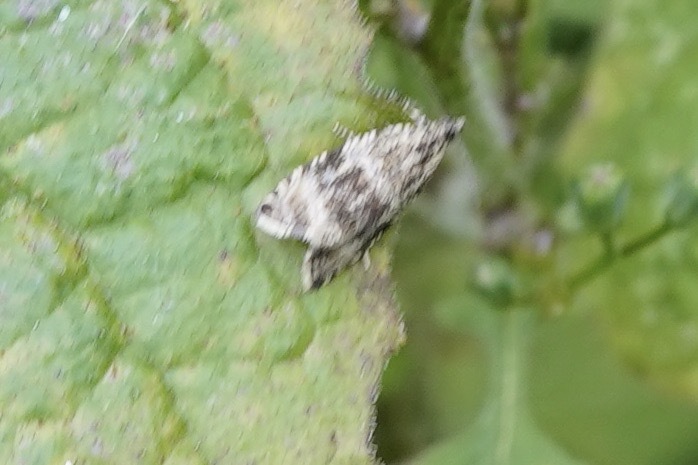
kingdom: Animalia
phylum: Arthropoda
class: Insecta
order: Lepidoptera
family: Tortricidae
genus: Syricoris
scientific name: Syricoris lacunana
